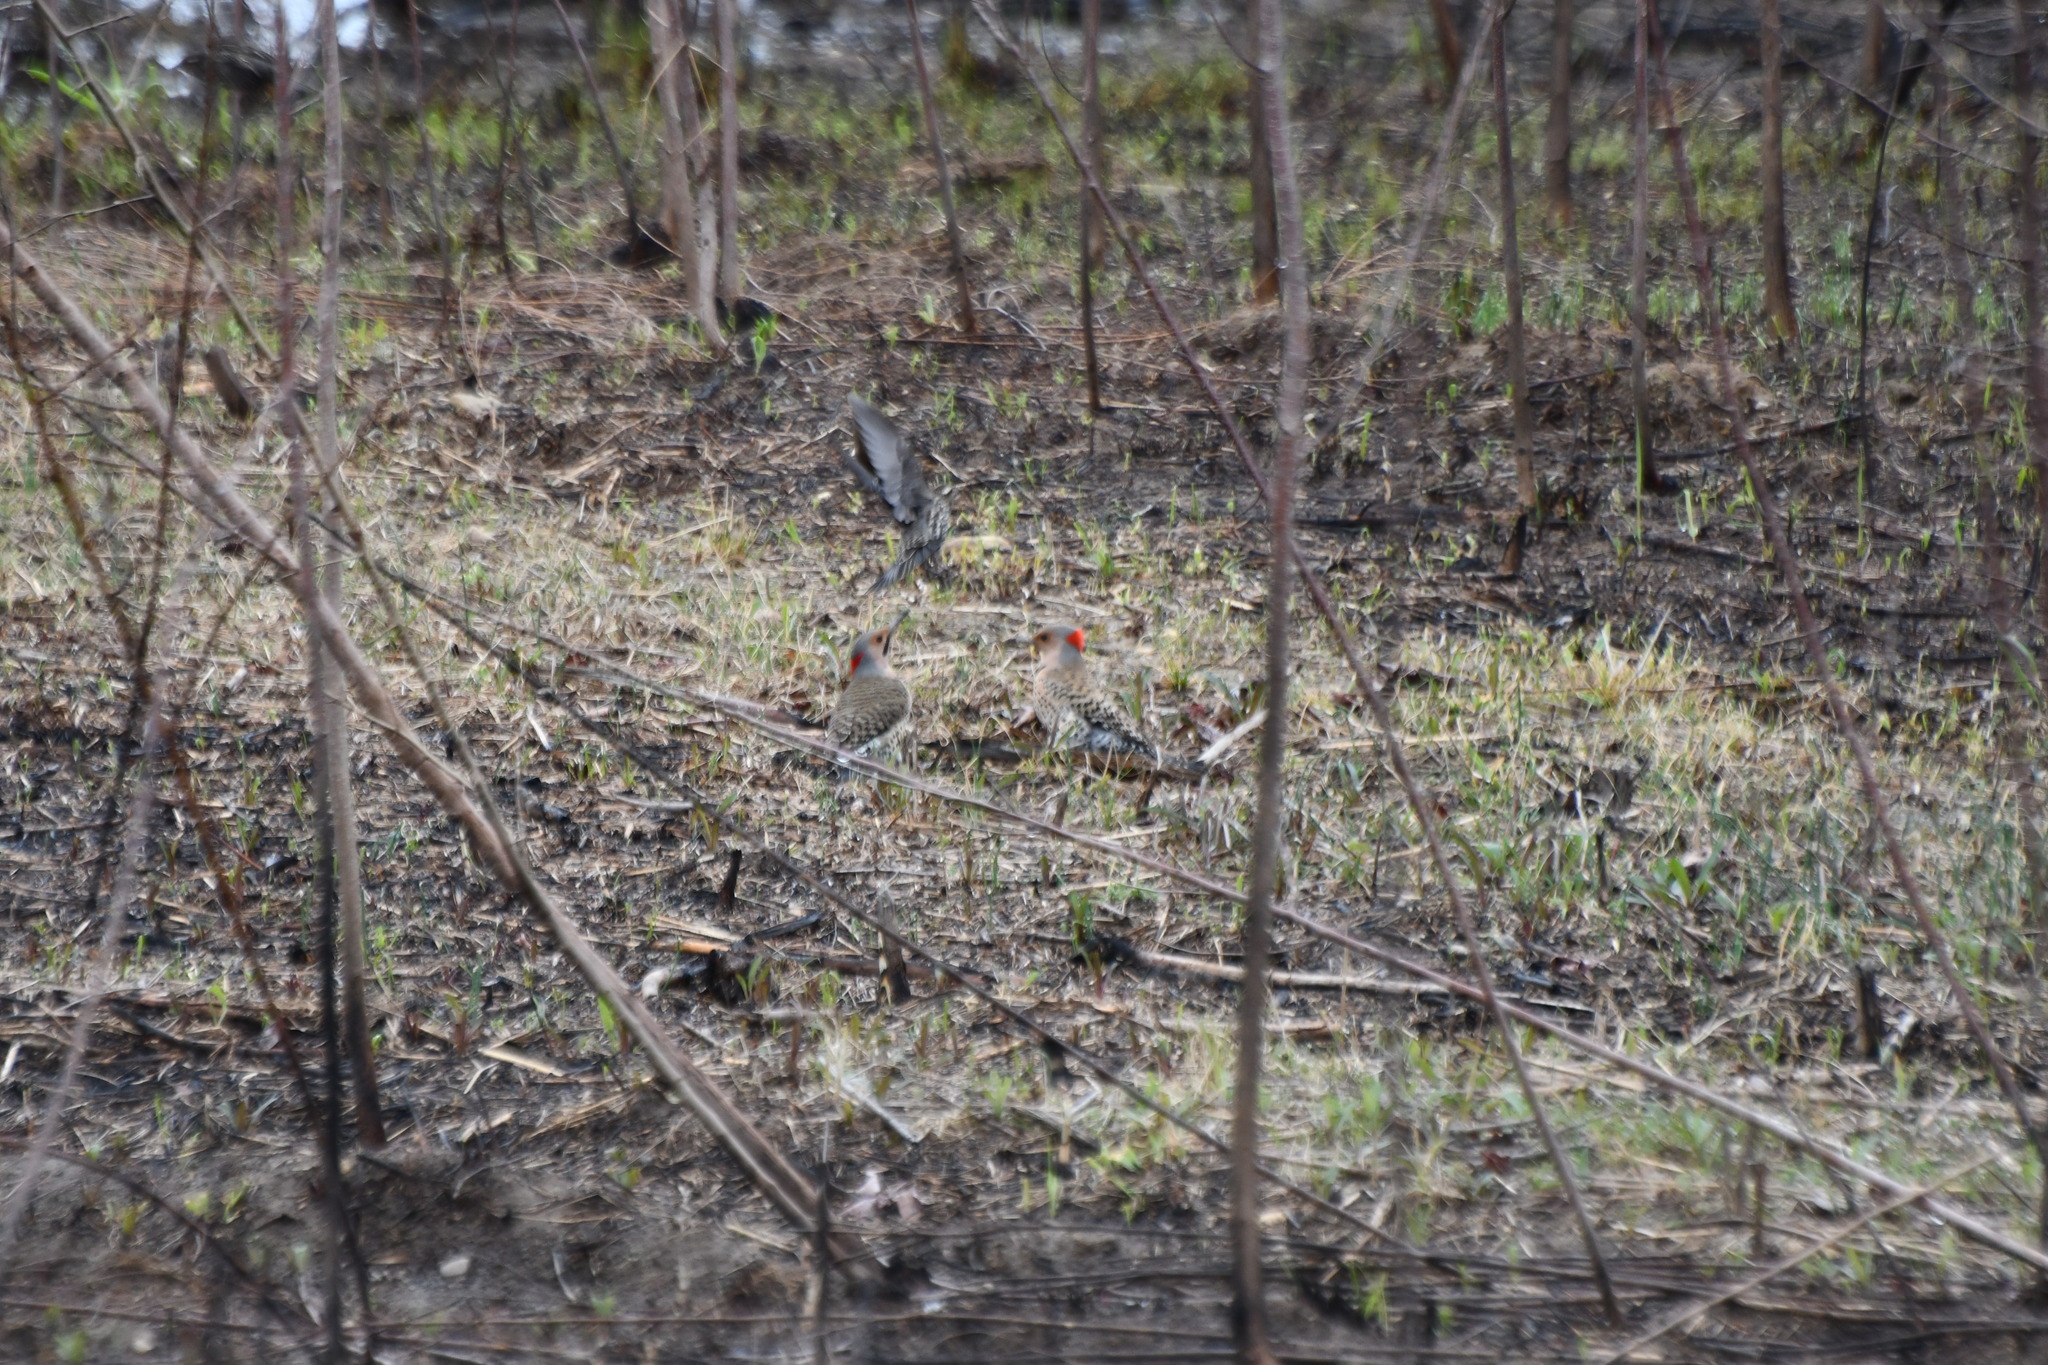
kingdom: Animalia
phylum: Chordata
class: Aves
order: Piciformes
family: Picidae
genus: Colaptes
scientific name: Colaptes auratus
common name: Northern flicker
